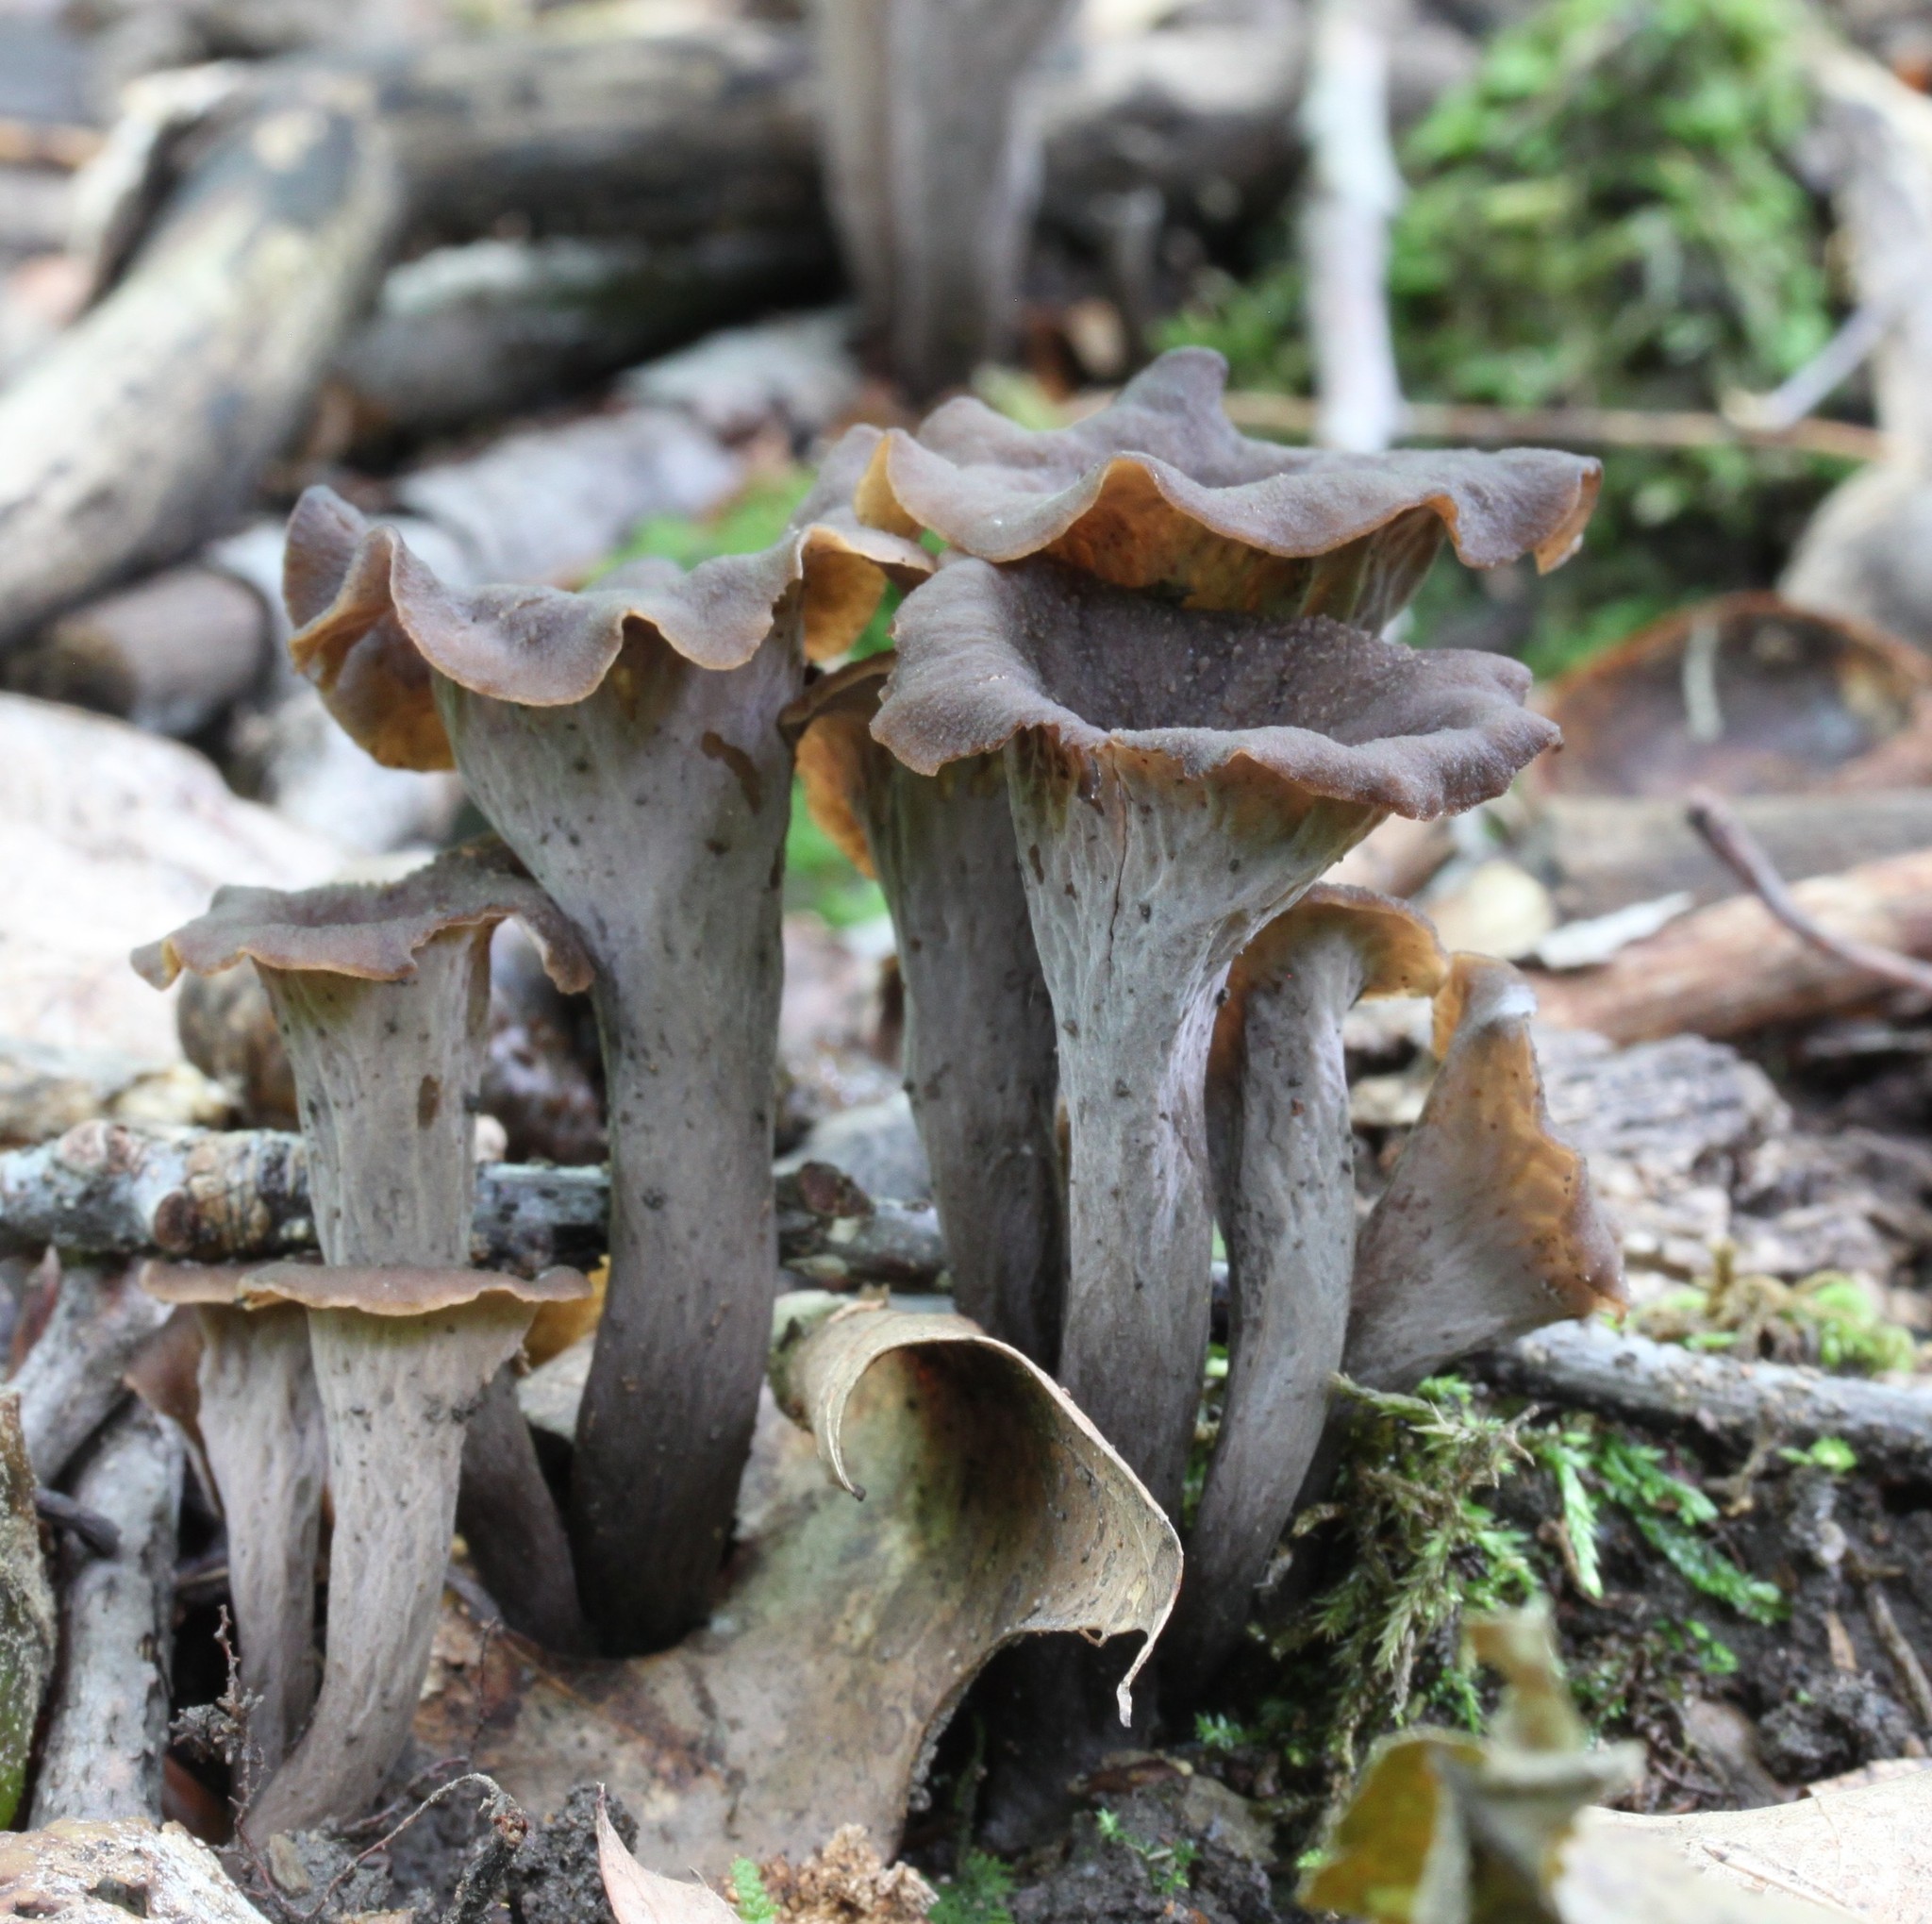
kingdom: Fungi
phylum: Basidiomycota
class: Agaricomycetes
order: Cantharellales
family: Hydnaceae
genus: Craterellus
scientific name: Craterellus cornucopioides
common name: Horn of plenty
